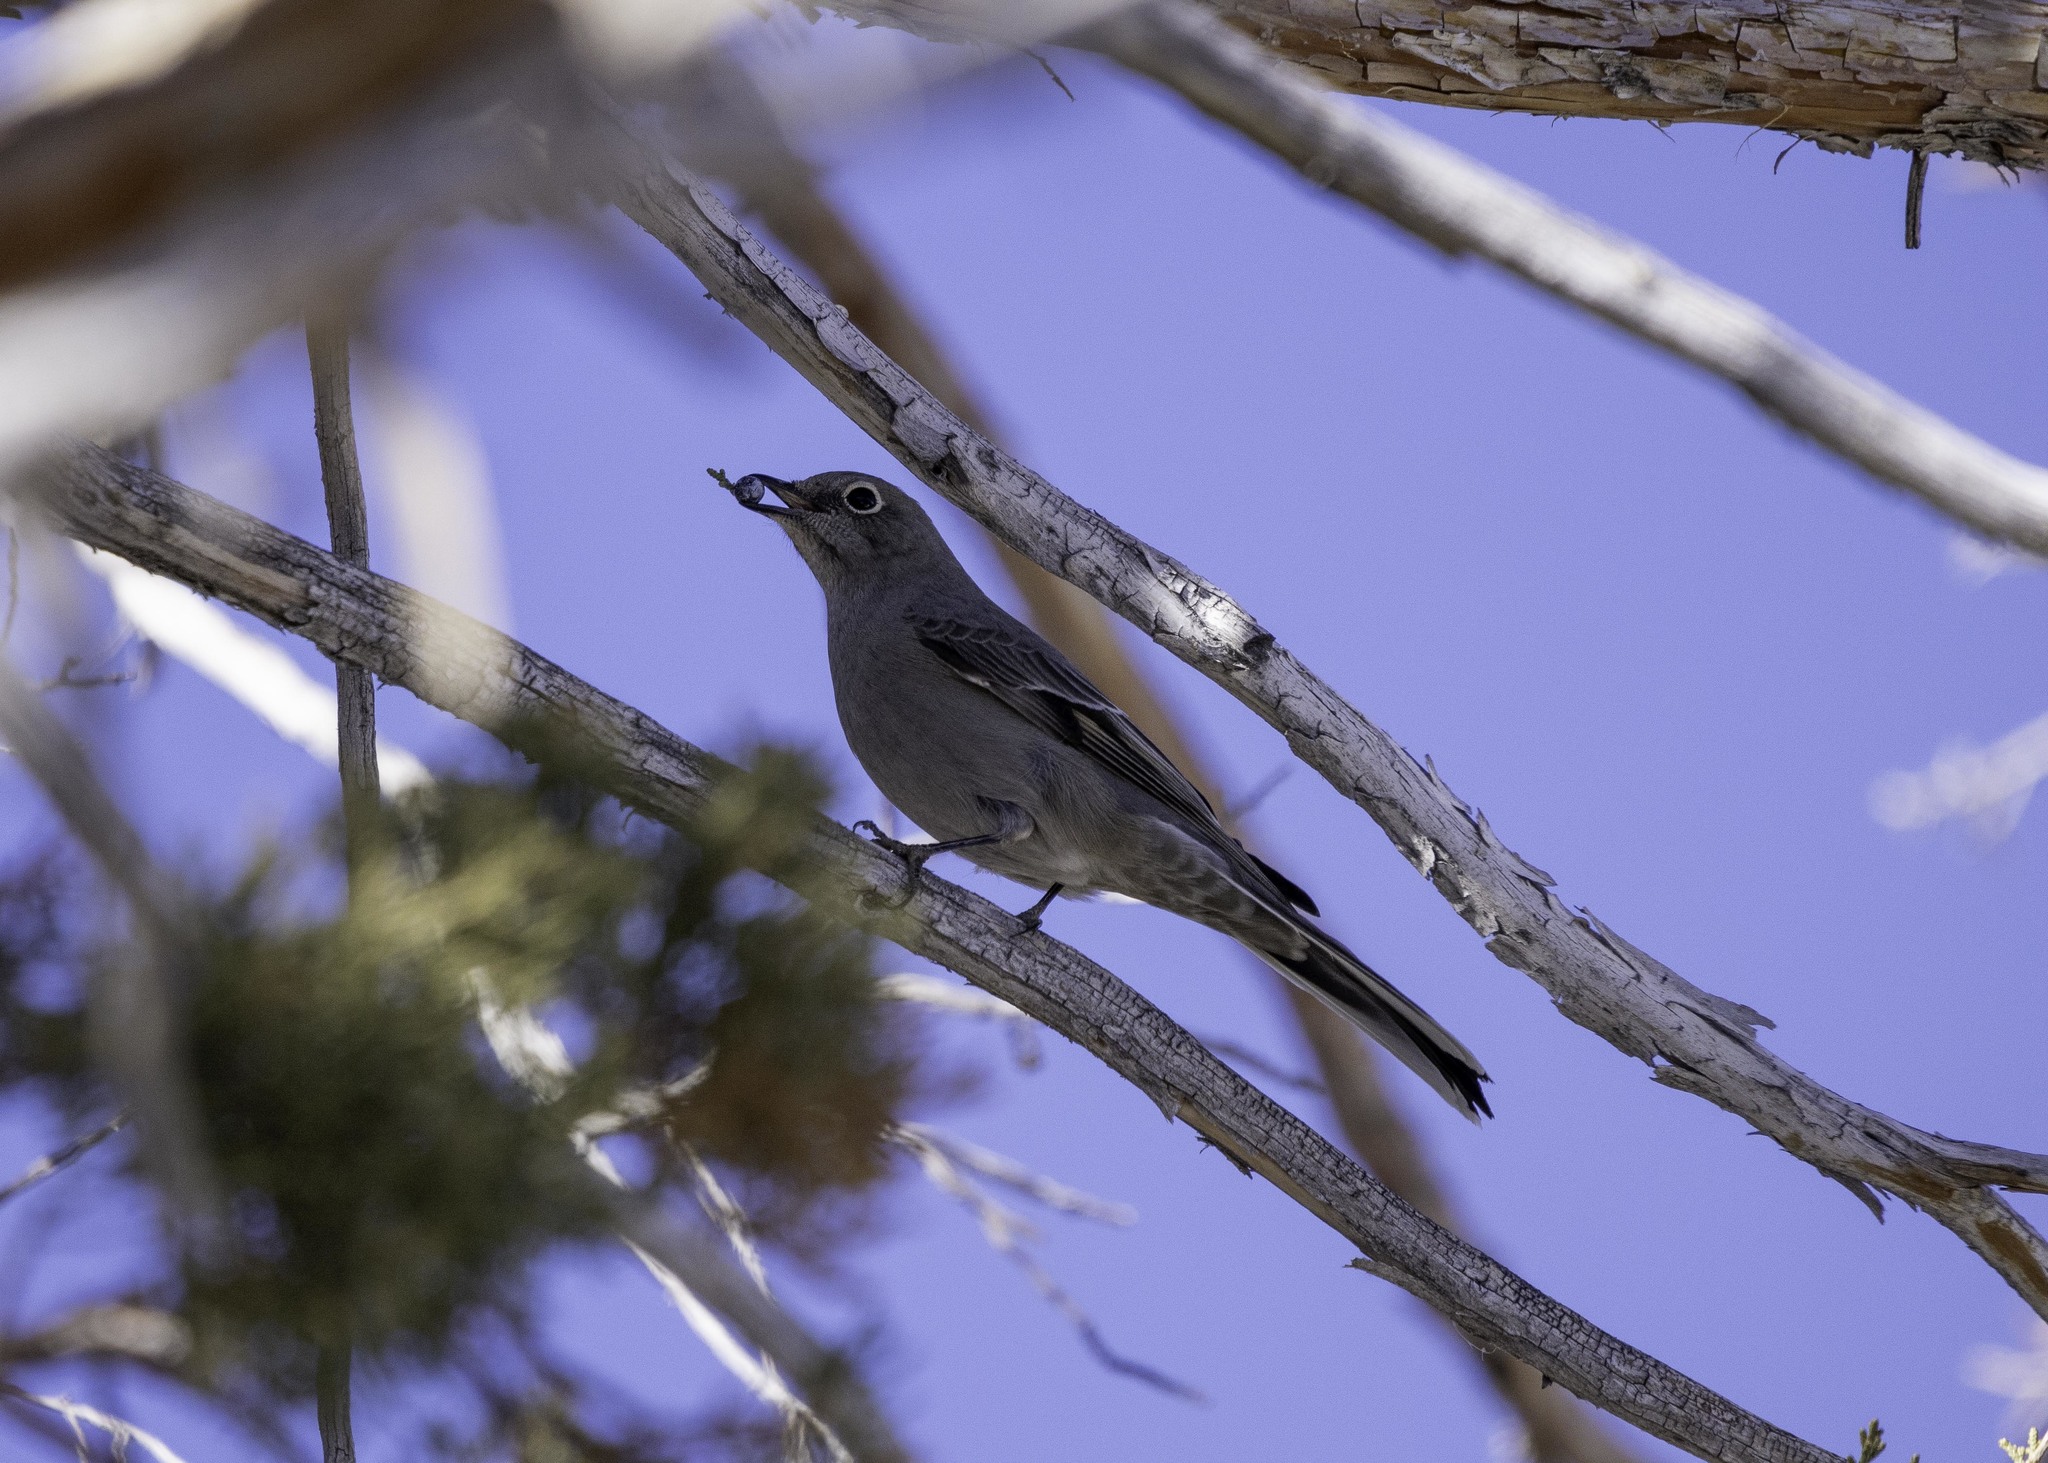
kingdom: Animalia
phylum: Chordata
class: Aves
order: Passeriformes
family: Turdidae
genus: Myadestes
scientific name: Myadestes townsendi
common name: Townsend's solitaire
